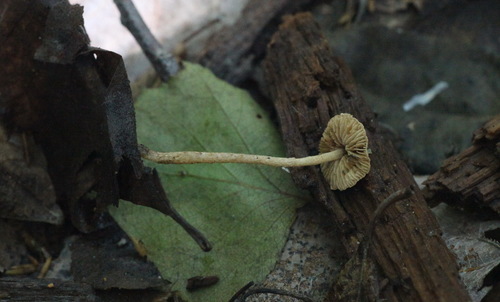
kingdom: Fungi
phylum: Basidiomycota
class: Agaricomycetes
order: Agaricales
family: Tubariaceae
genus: Flammulaster
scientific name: Flammulaster carpophilus
